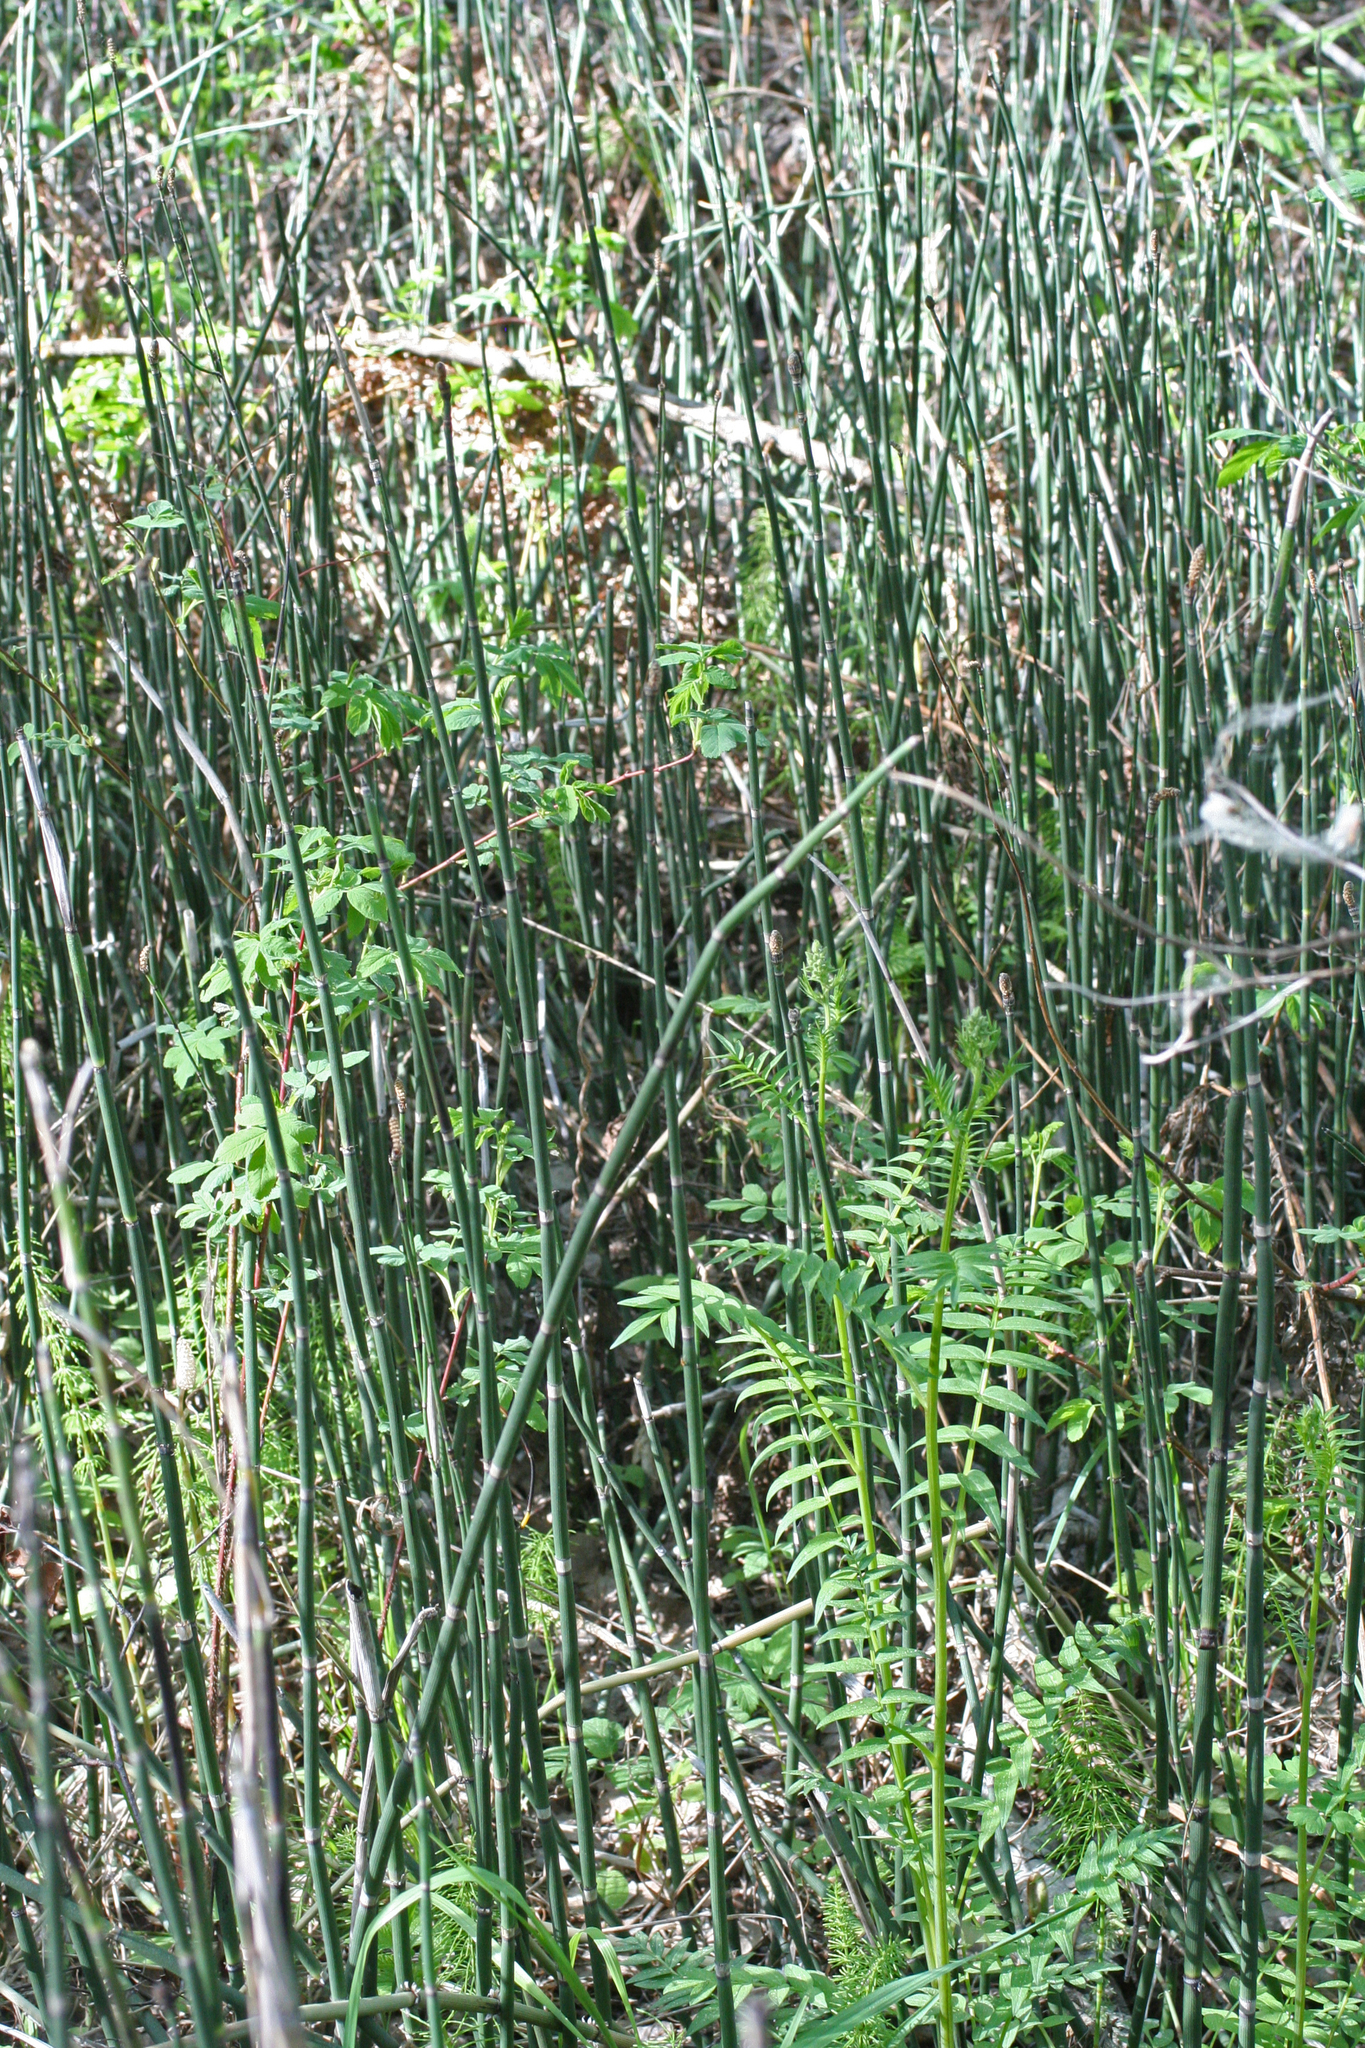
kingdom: Plantae
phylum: Tracheophyta
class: Polypodiopsida
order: Equisetales
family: Equisetaceae
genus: Equisetum
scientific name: Equisetum hyemale
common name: Rough horsetail
